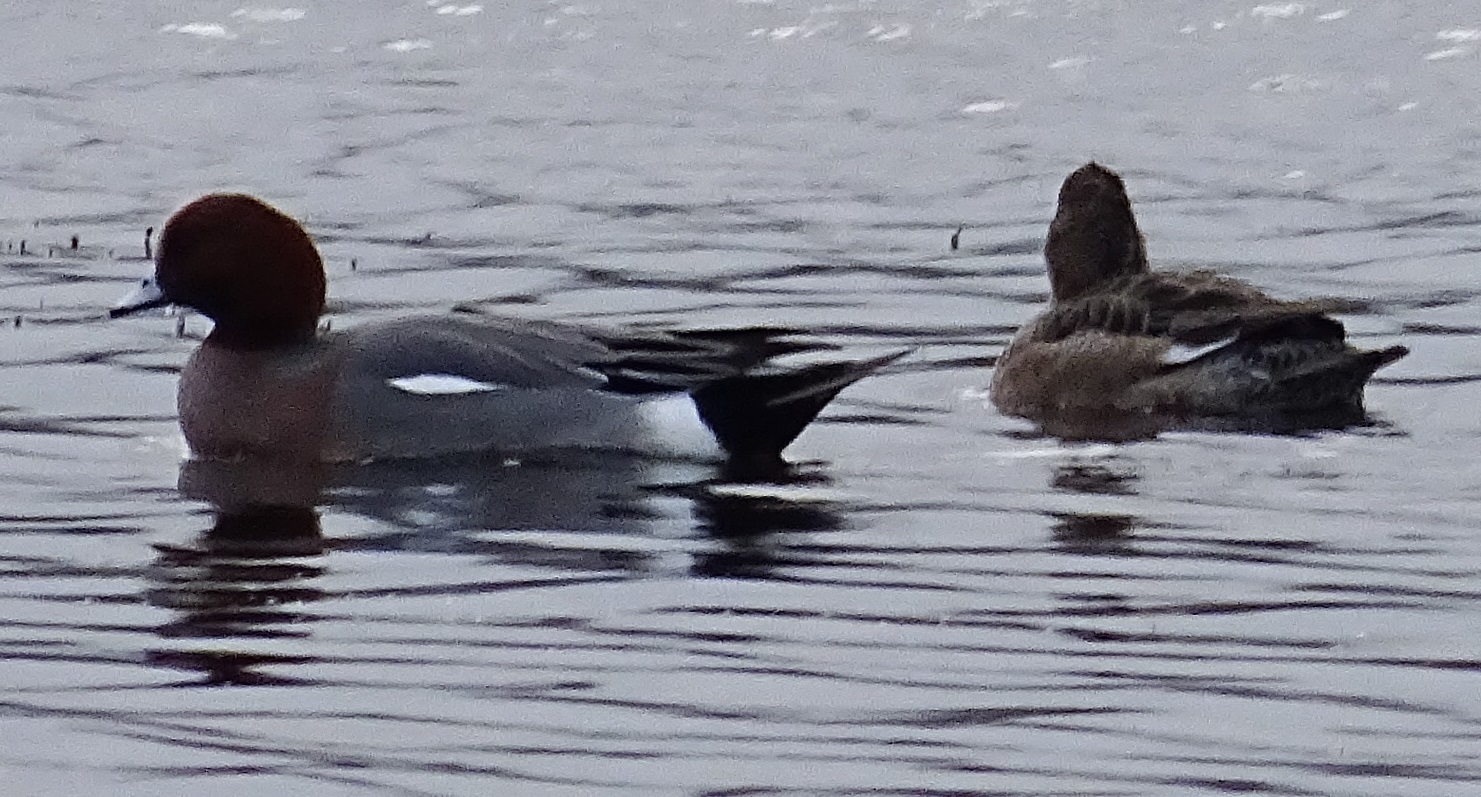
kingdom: Animalia
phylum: Chordata
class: Aves
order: Anseriformes
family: Anatidae
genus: Mareca
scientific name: Mareca penelope
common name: Eurasian wigeon
